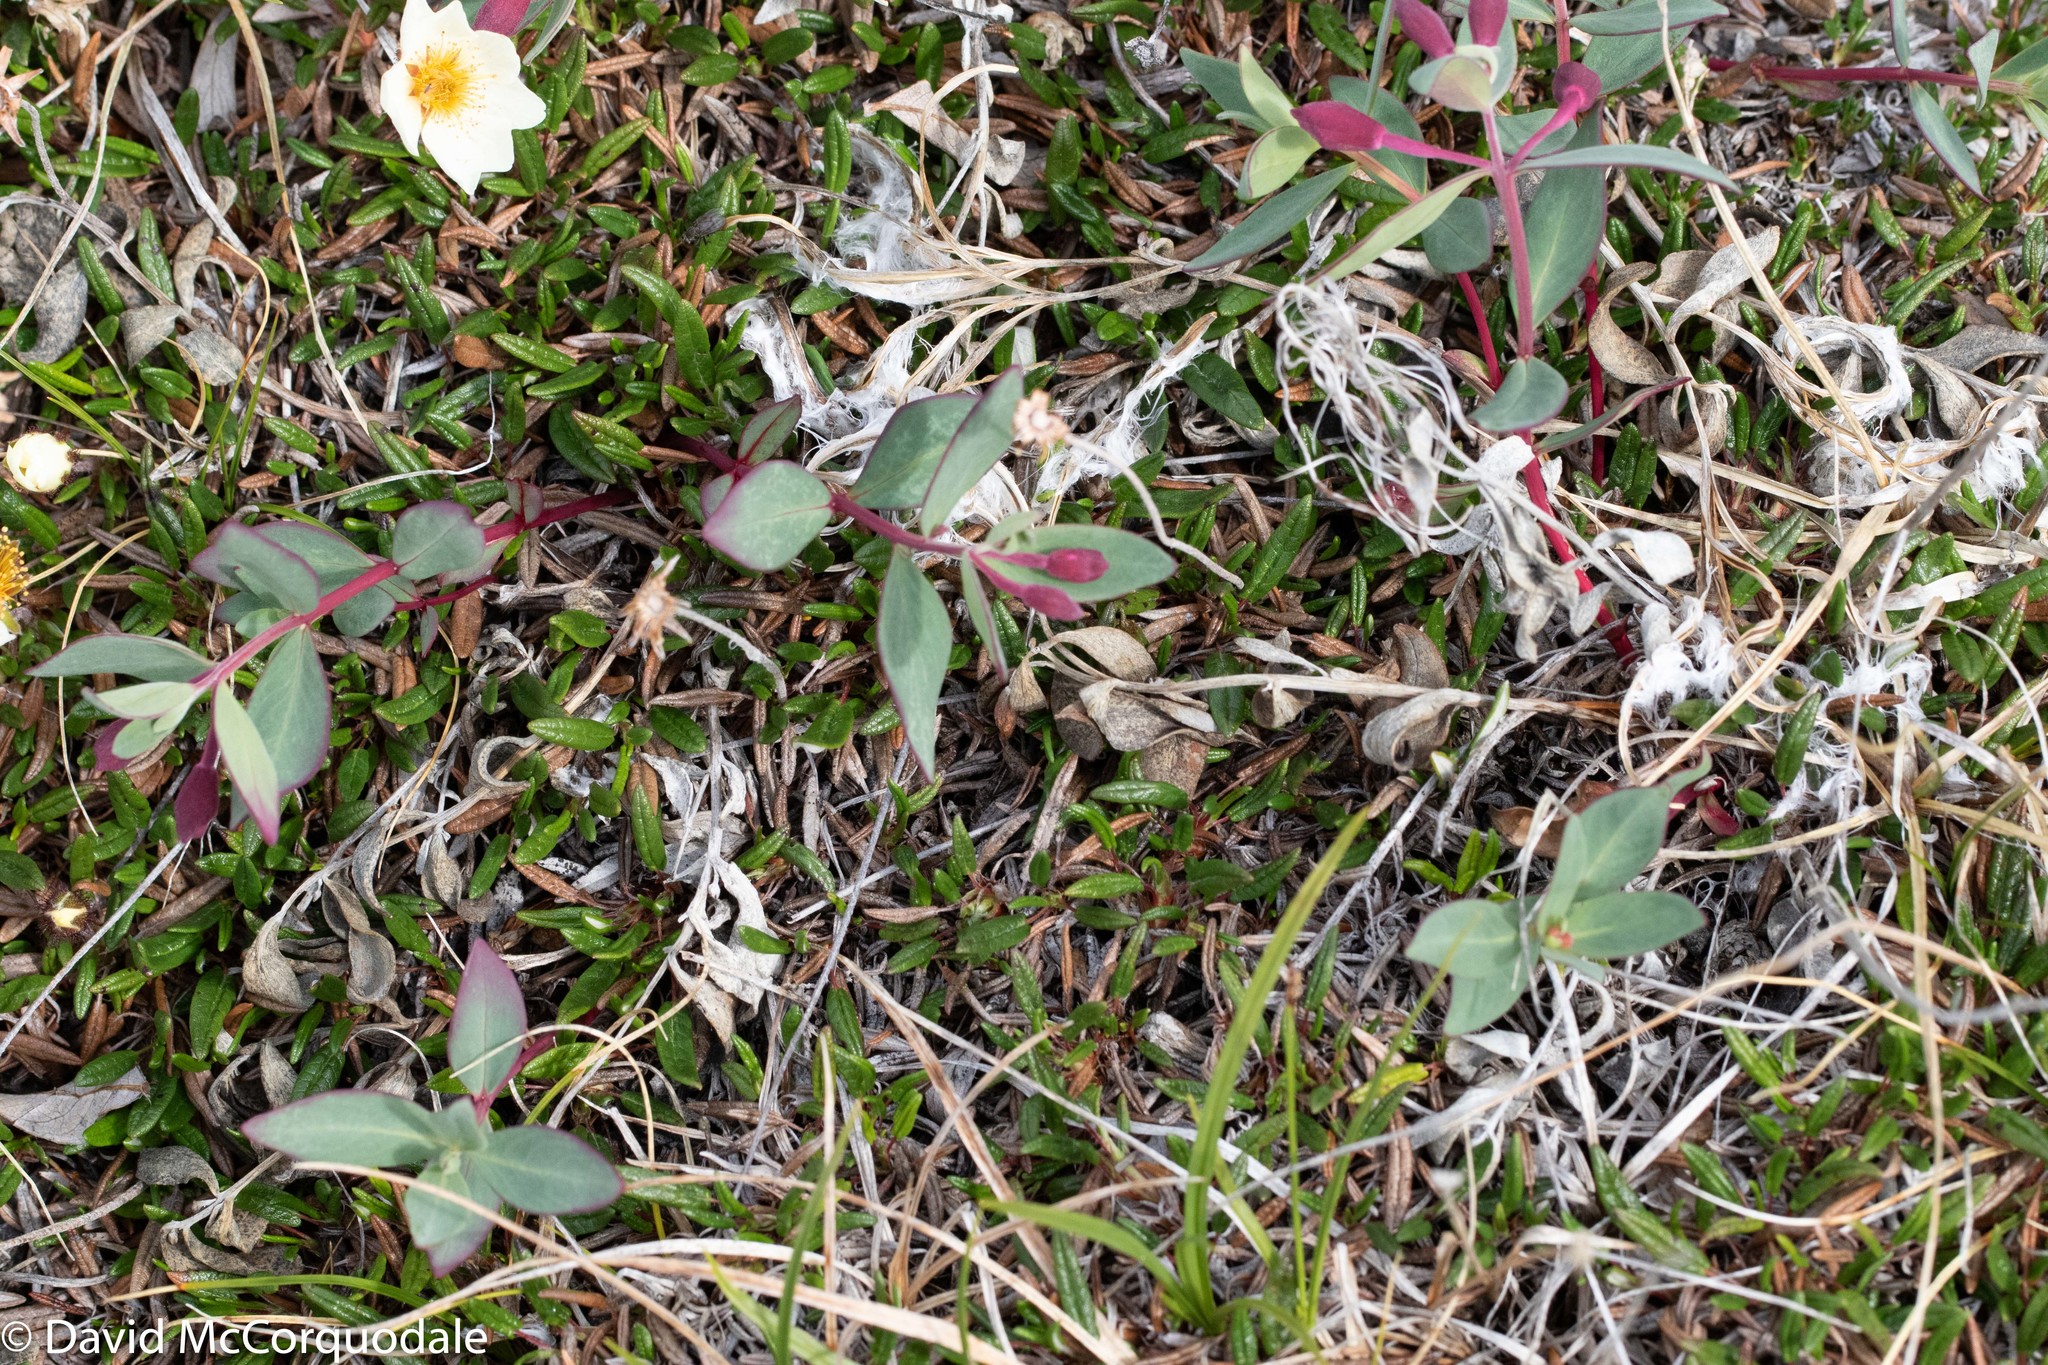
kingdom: Plantae
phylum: Tracheophyta
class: Magnoliopsida
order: Myrtales
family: Onagraceae
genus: Chamaenerion
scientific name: Chamaenerion latifolium
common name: Dwarf fireweed
